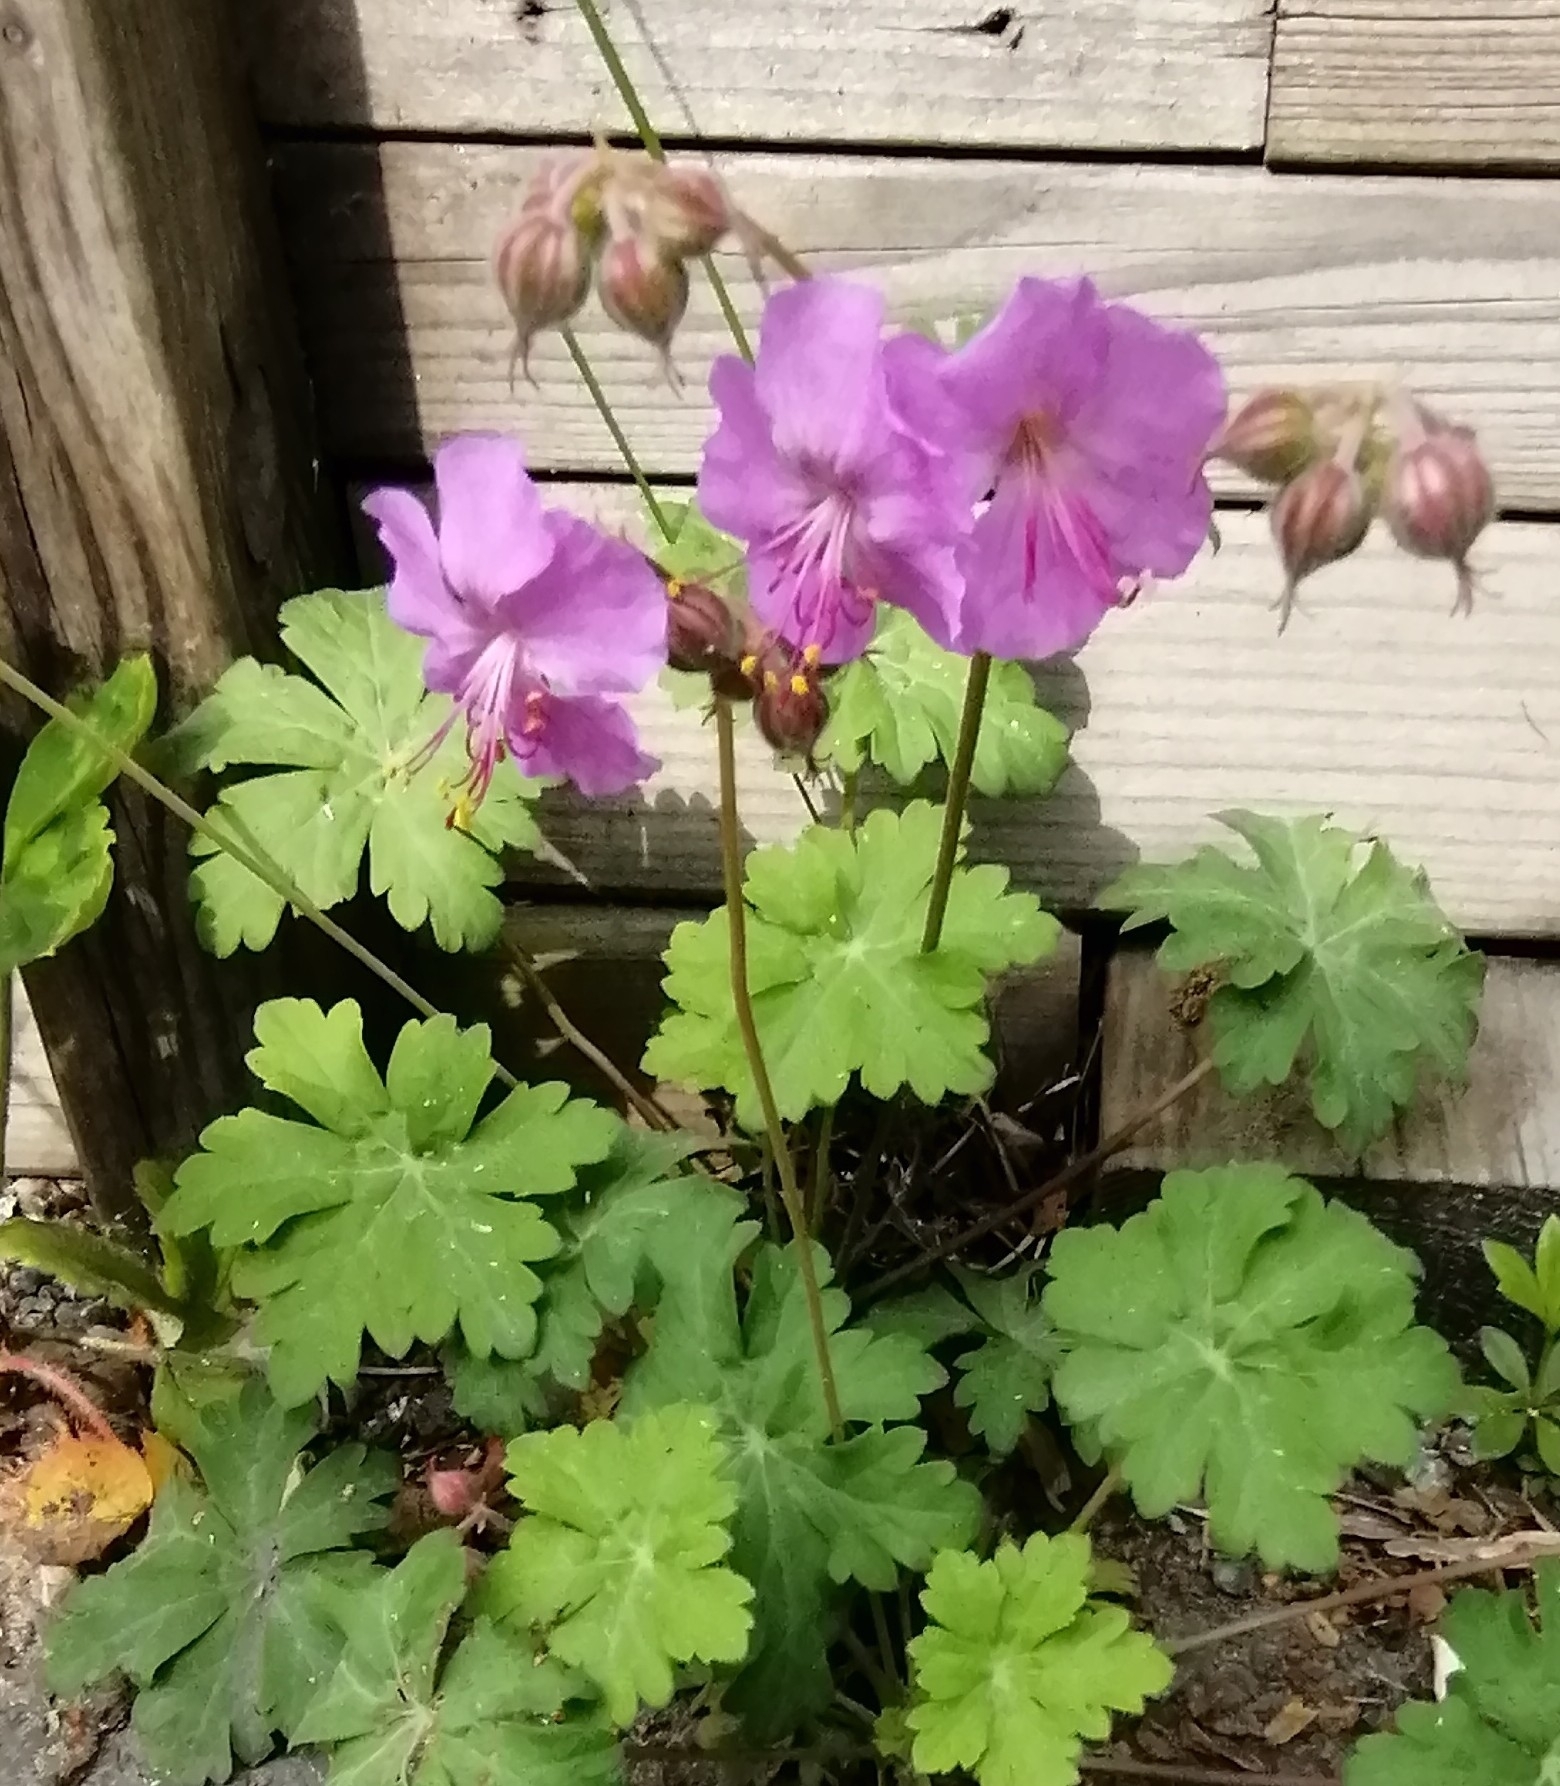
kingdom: Plantae
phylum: Tracheophyta
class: Magnoliopsida
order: Geraniales
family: Geraniaceae
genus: Geranium
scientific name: Geranium macrorrhizum
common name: Rock crane's-bill
